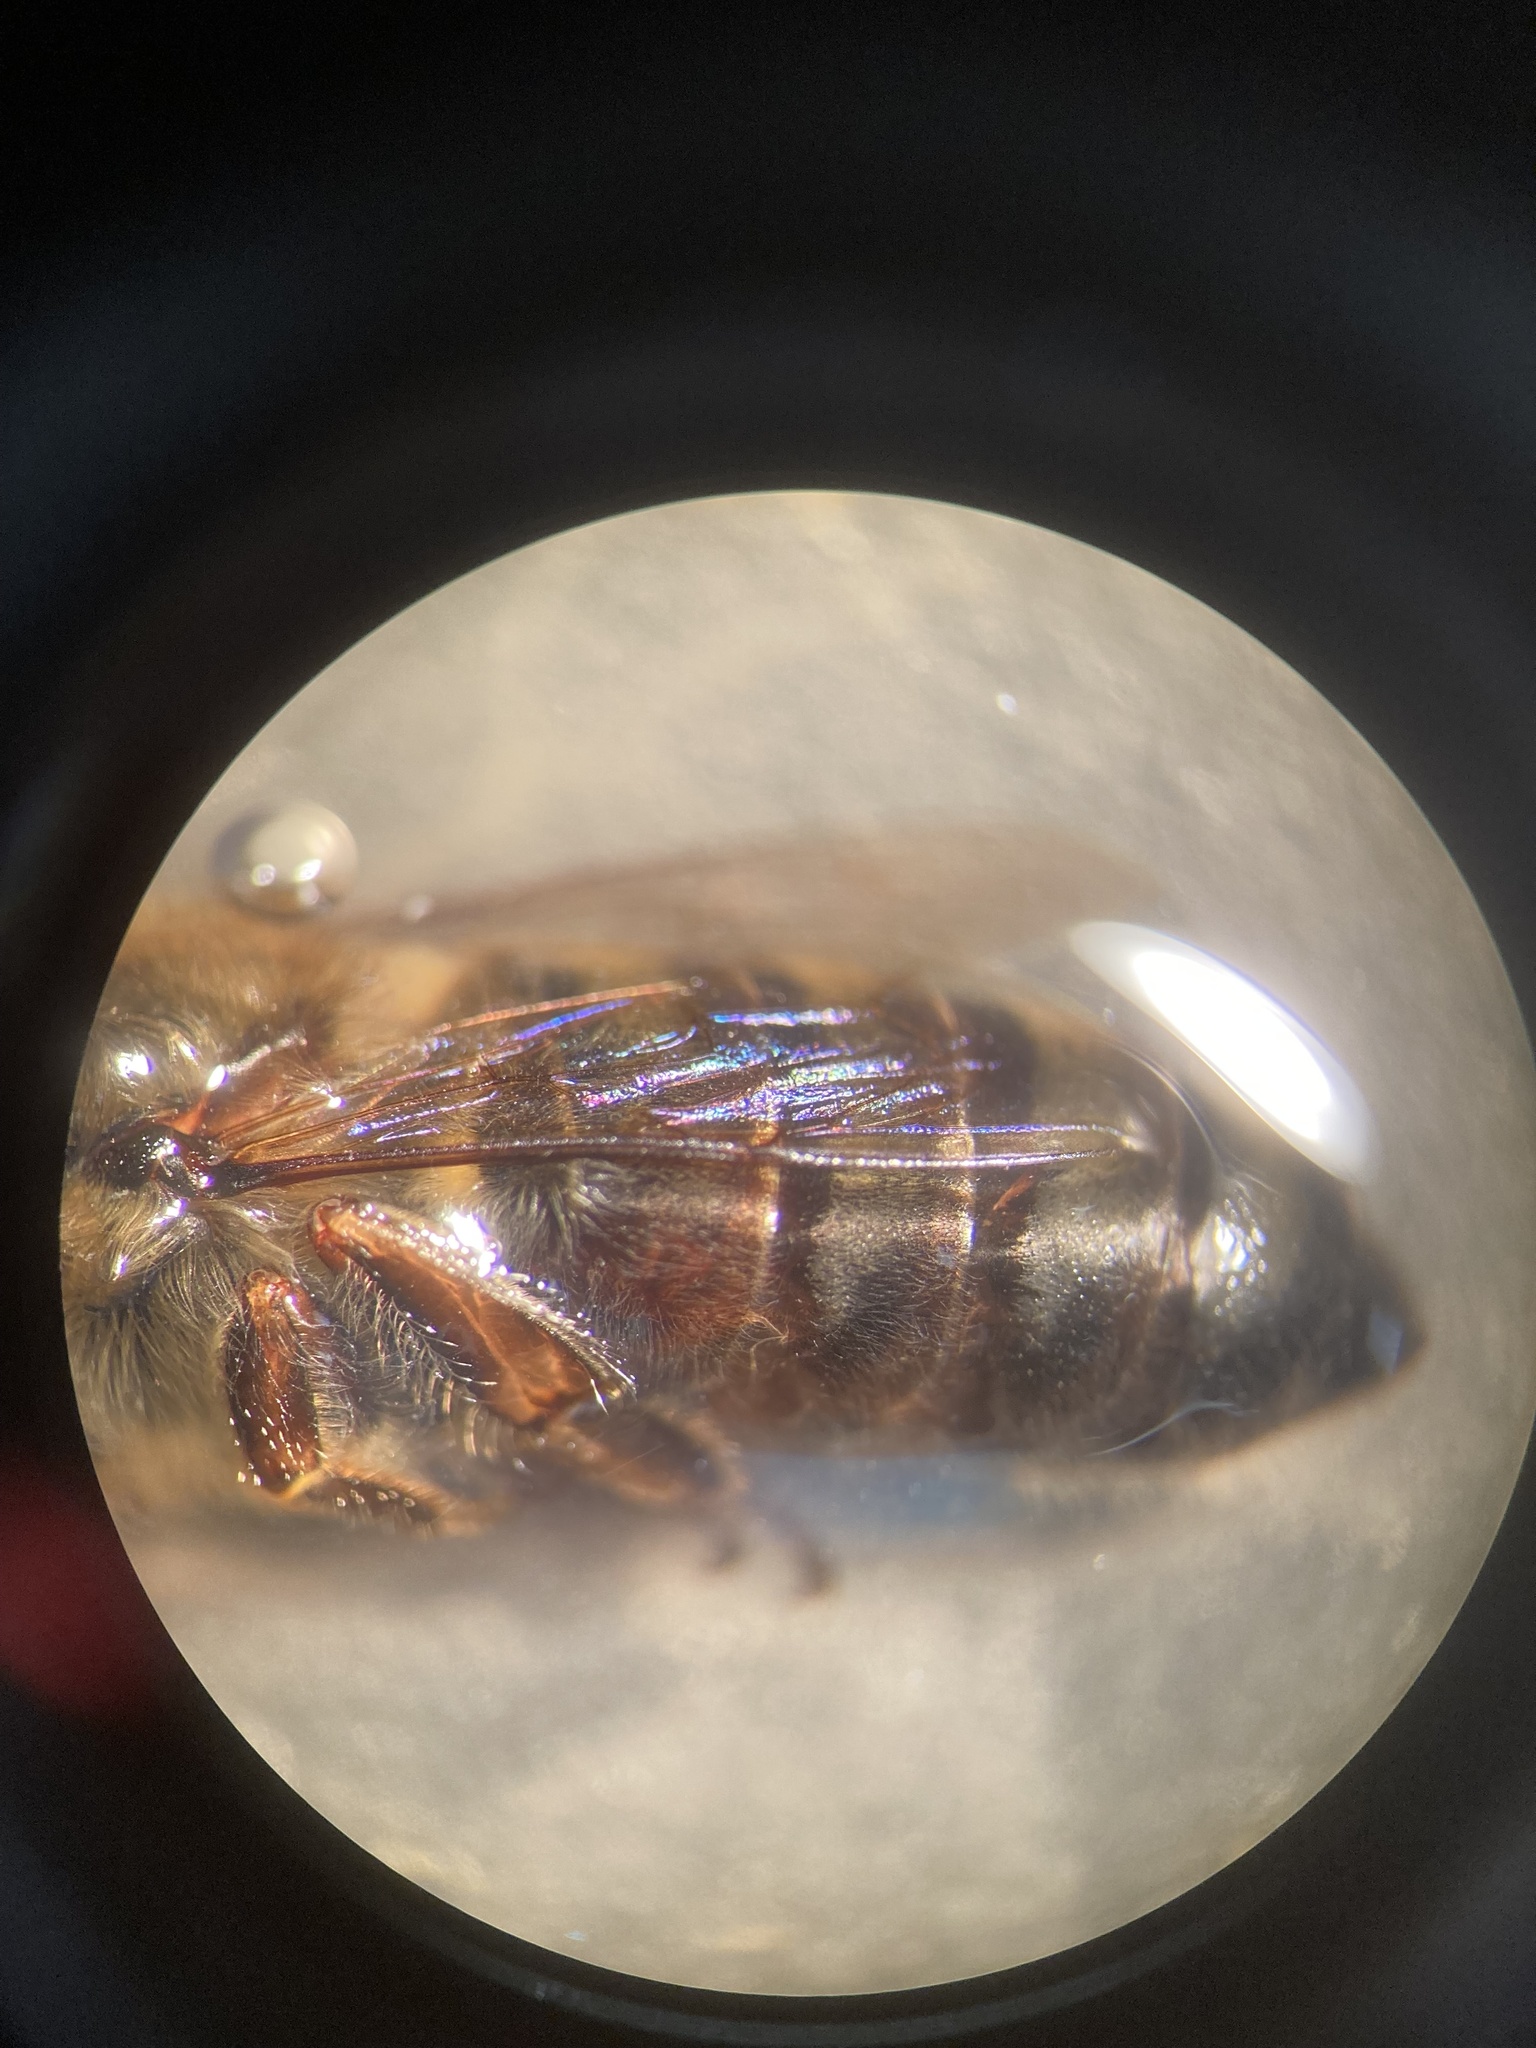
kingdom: Animalia
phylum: Arthropoda
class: Insecta
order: Hymenoptera
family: Apidae
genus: Apis
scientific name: Apis mellifera
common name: Honey bee
